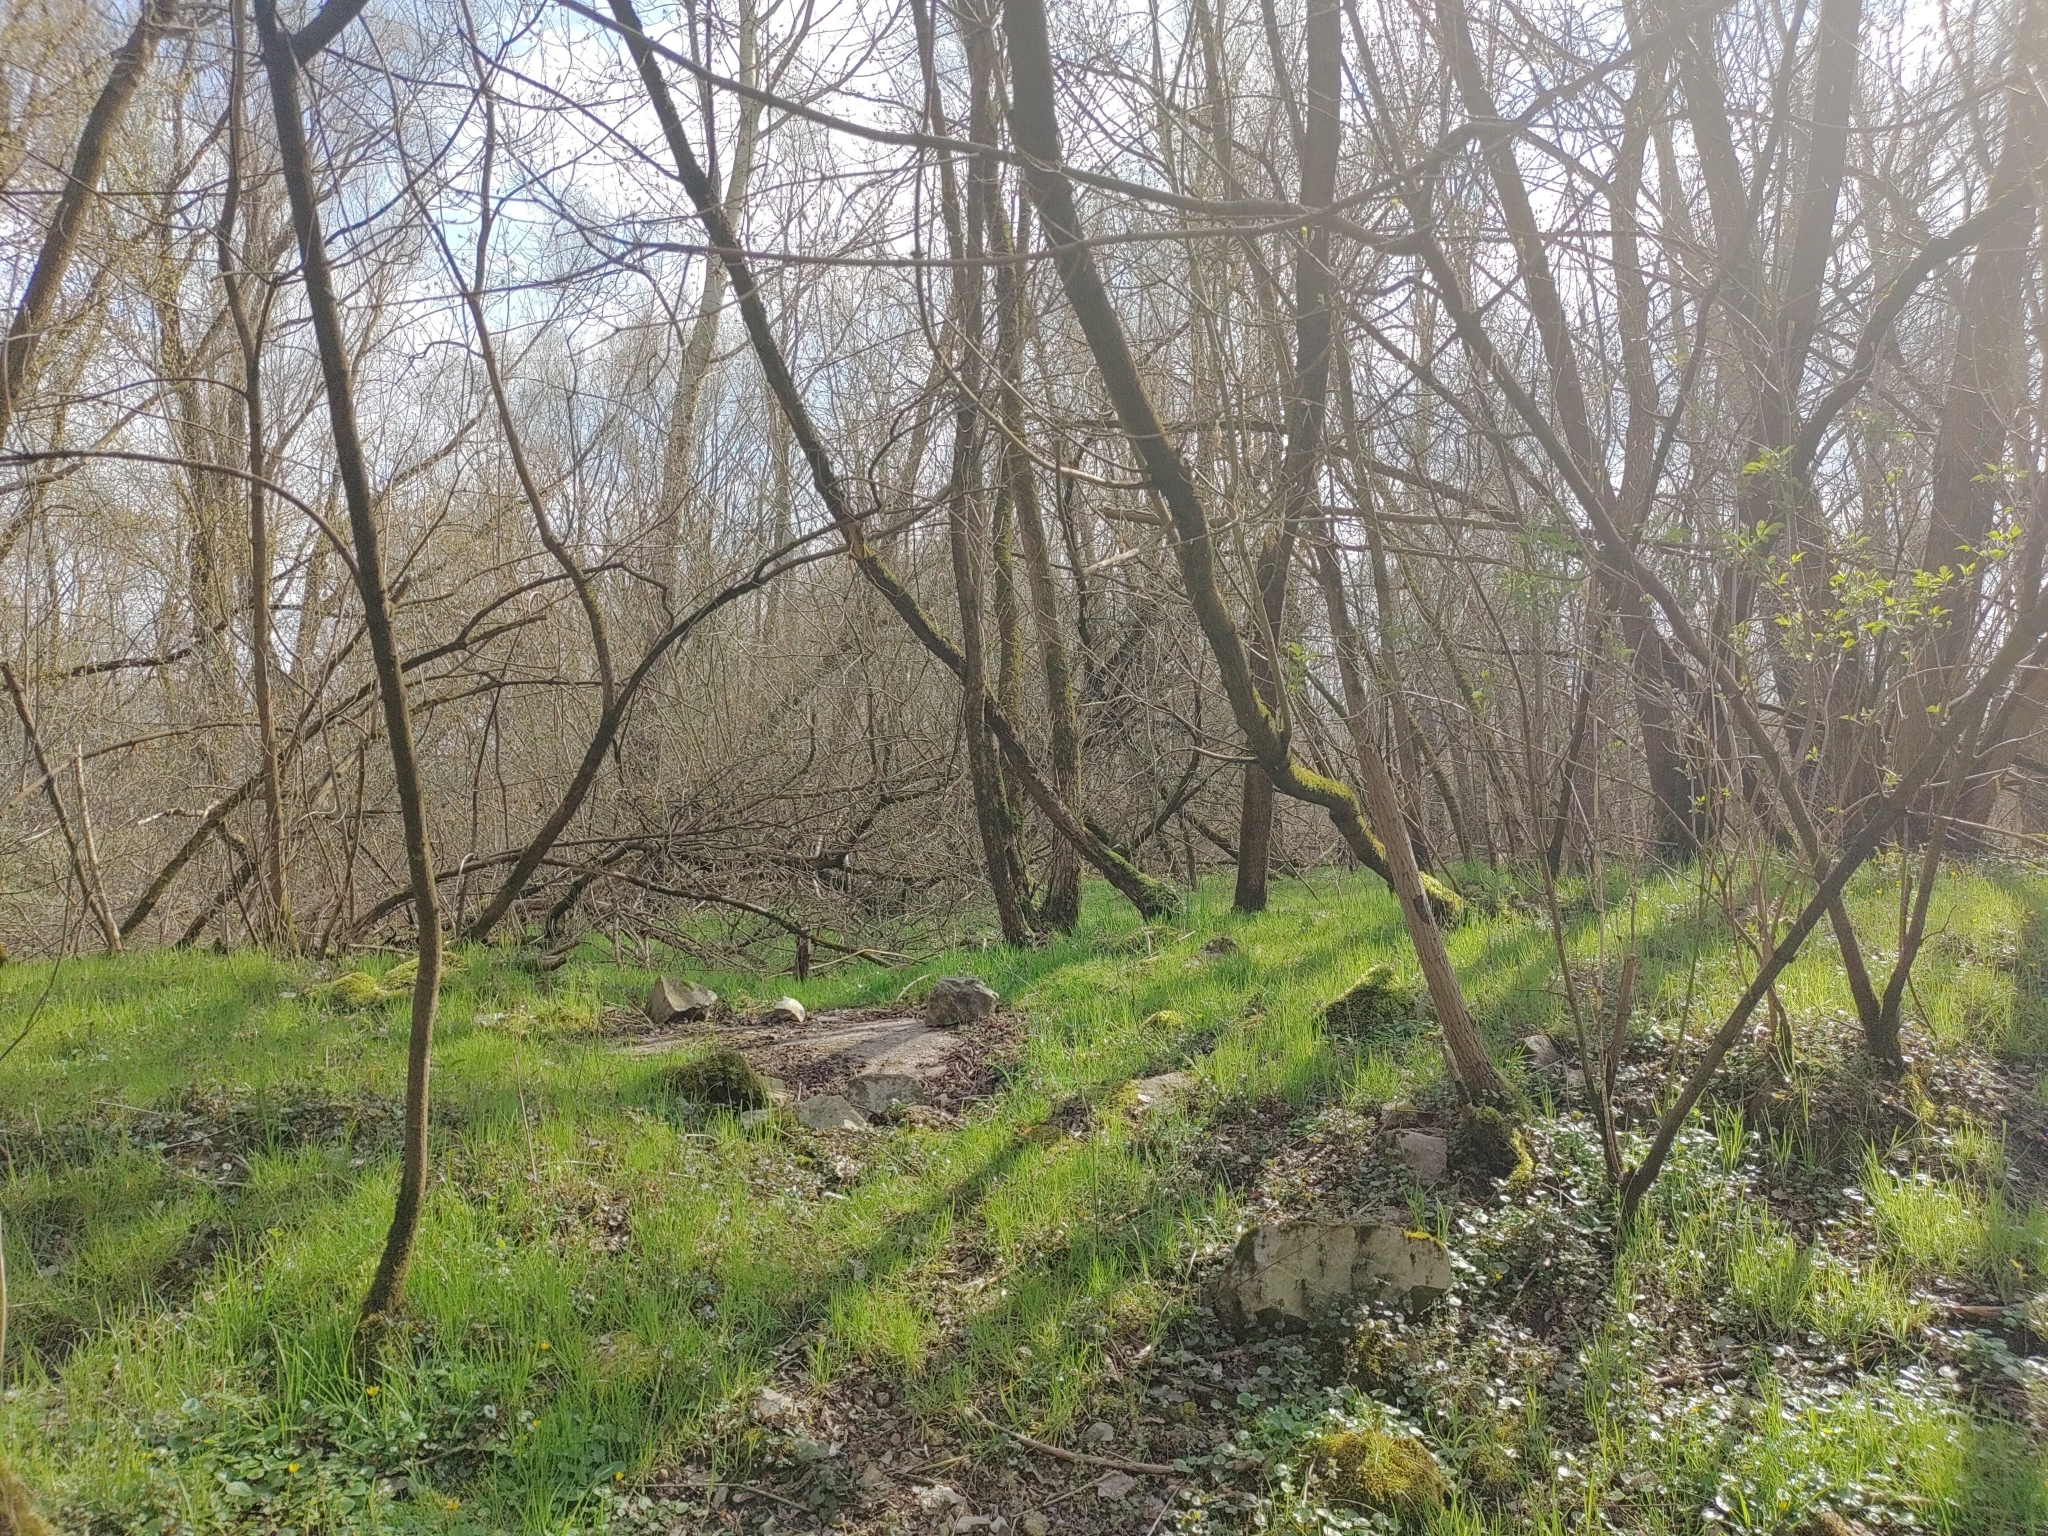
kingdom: Animalia
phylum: Chordata
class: Aves
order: Passeriformes
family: Turdidae
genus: Turdus
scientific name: Turdus merula
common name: Common blackbird
